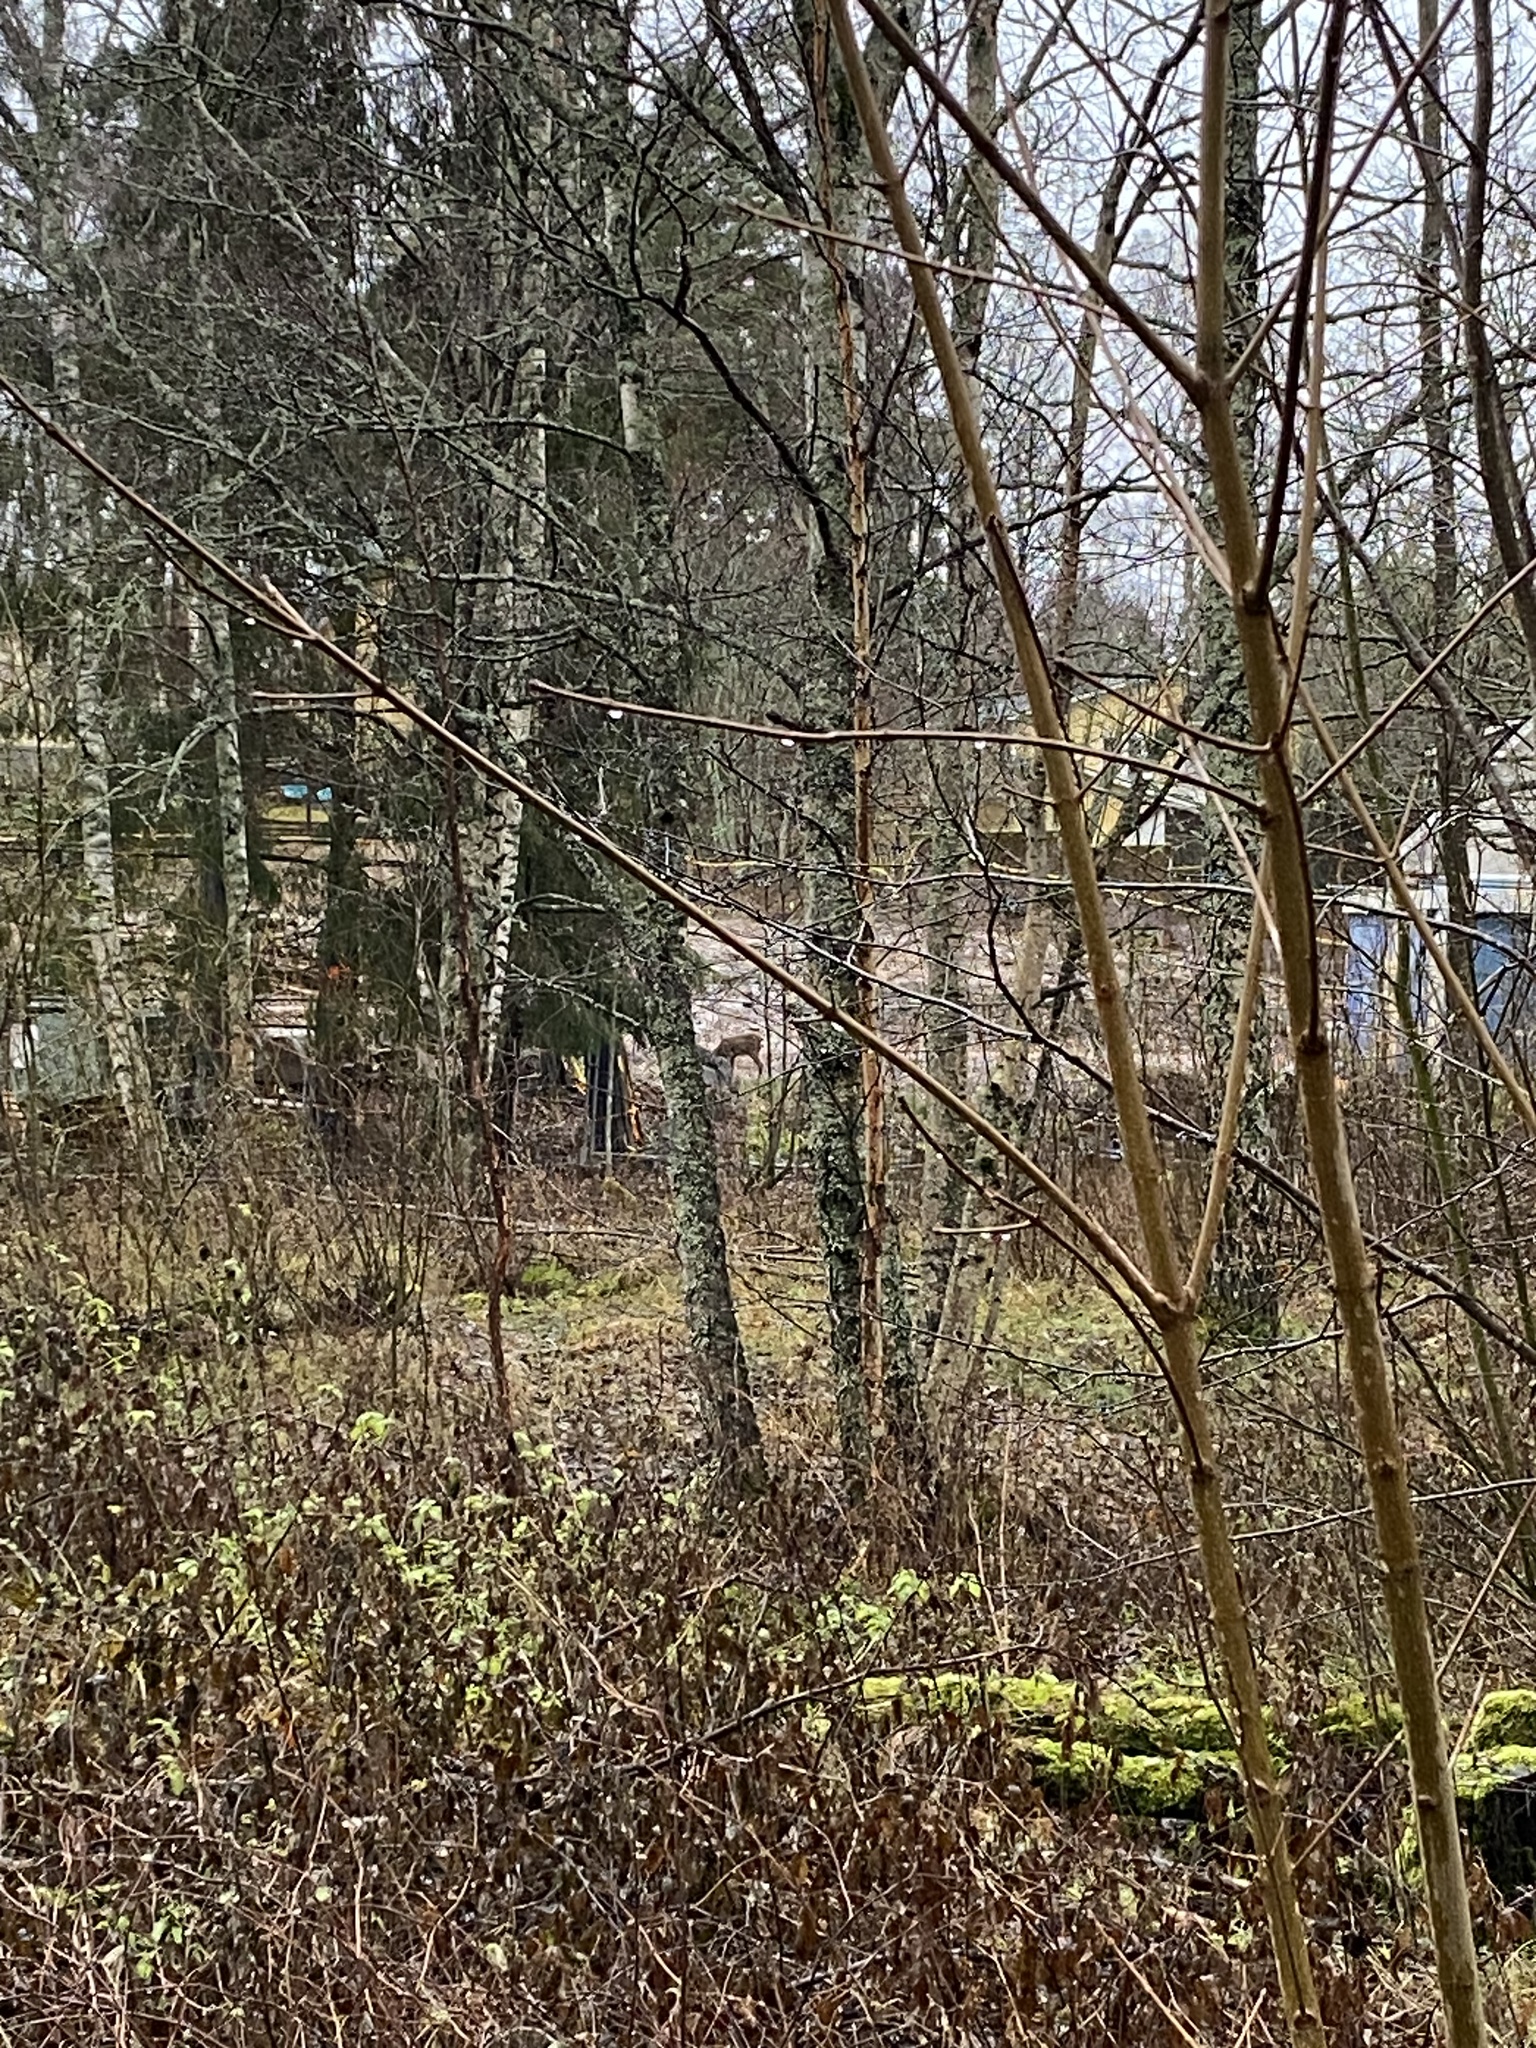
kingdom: Animalia
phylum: Chordata
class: Mammalia
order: Artiodactyla
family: Cervidae
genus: Capreolus
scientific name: Capreolus capreolus
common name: Western roe deer
